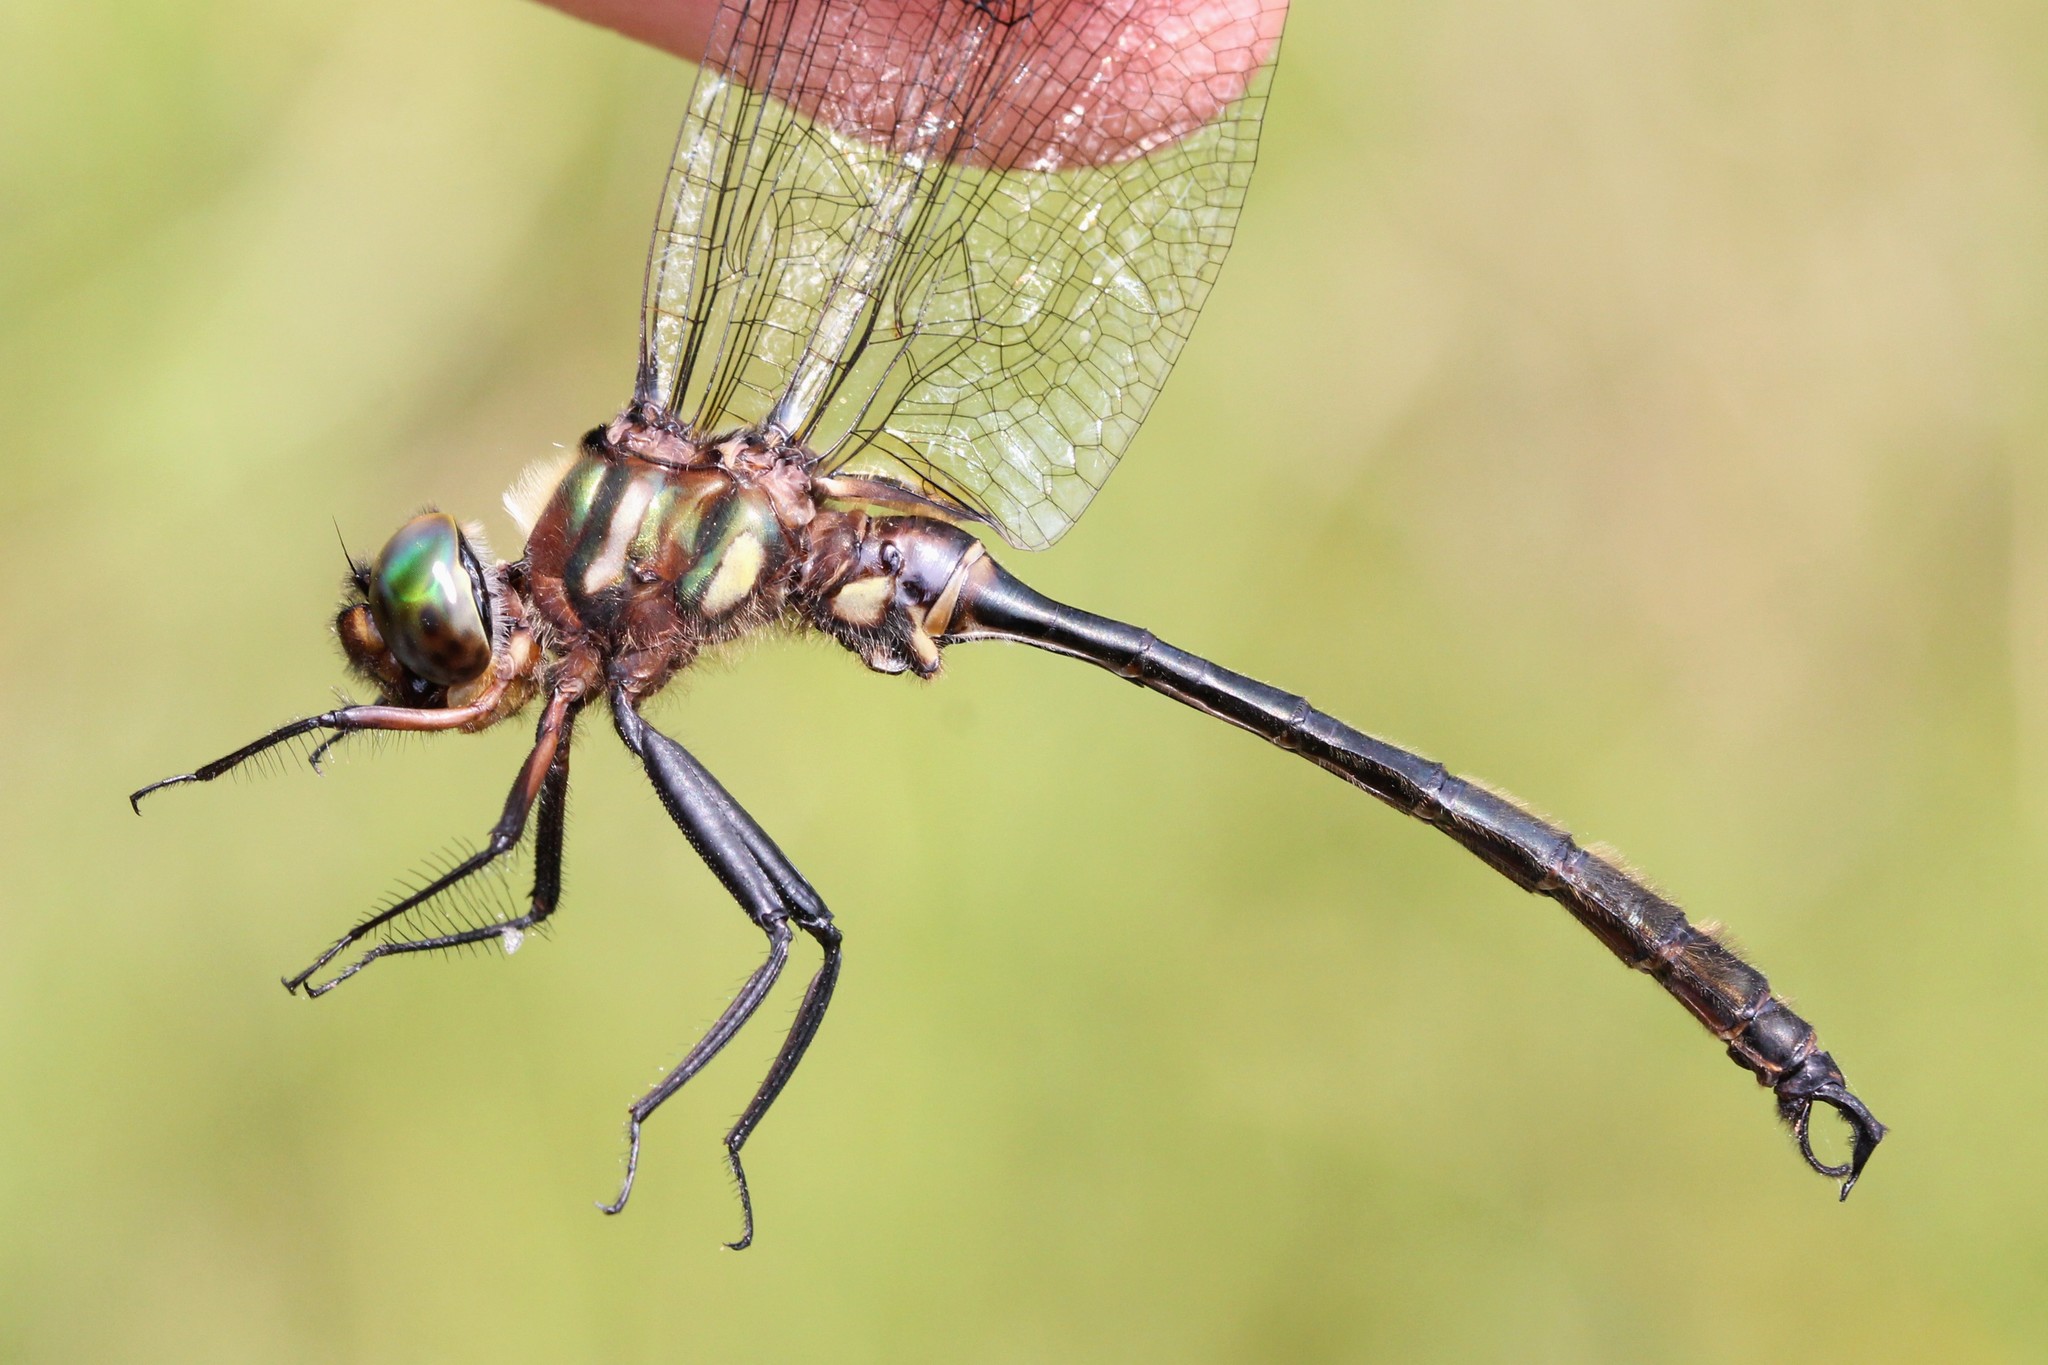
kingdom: Animalia
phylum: Arthropoda
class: Insecta
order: Odonata
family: Corduliidae
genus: Somatochlora
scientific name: Somatochlora tenebrosa
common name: Clamp-tipped emerald
